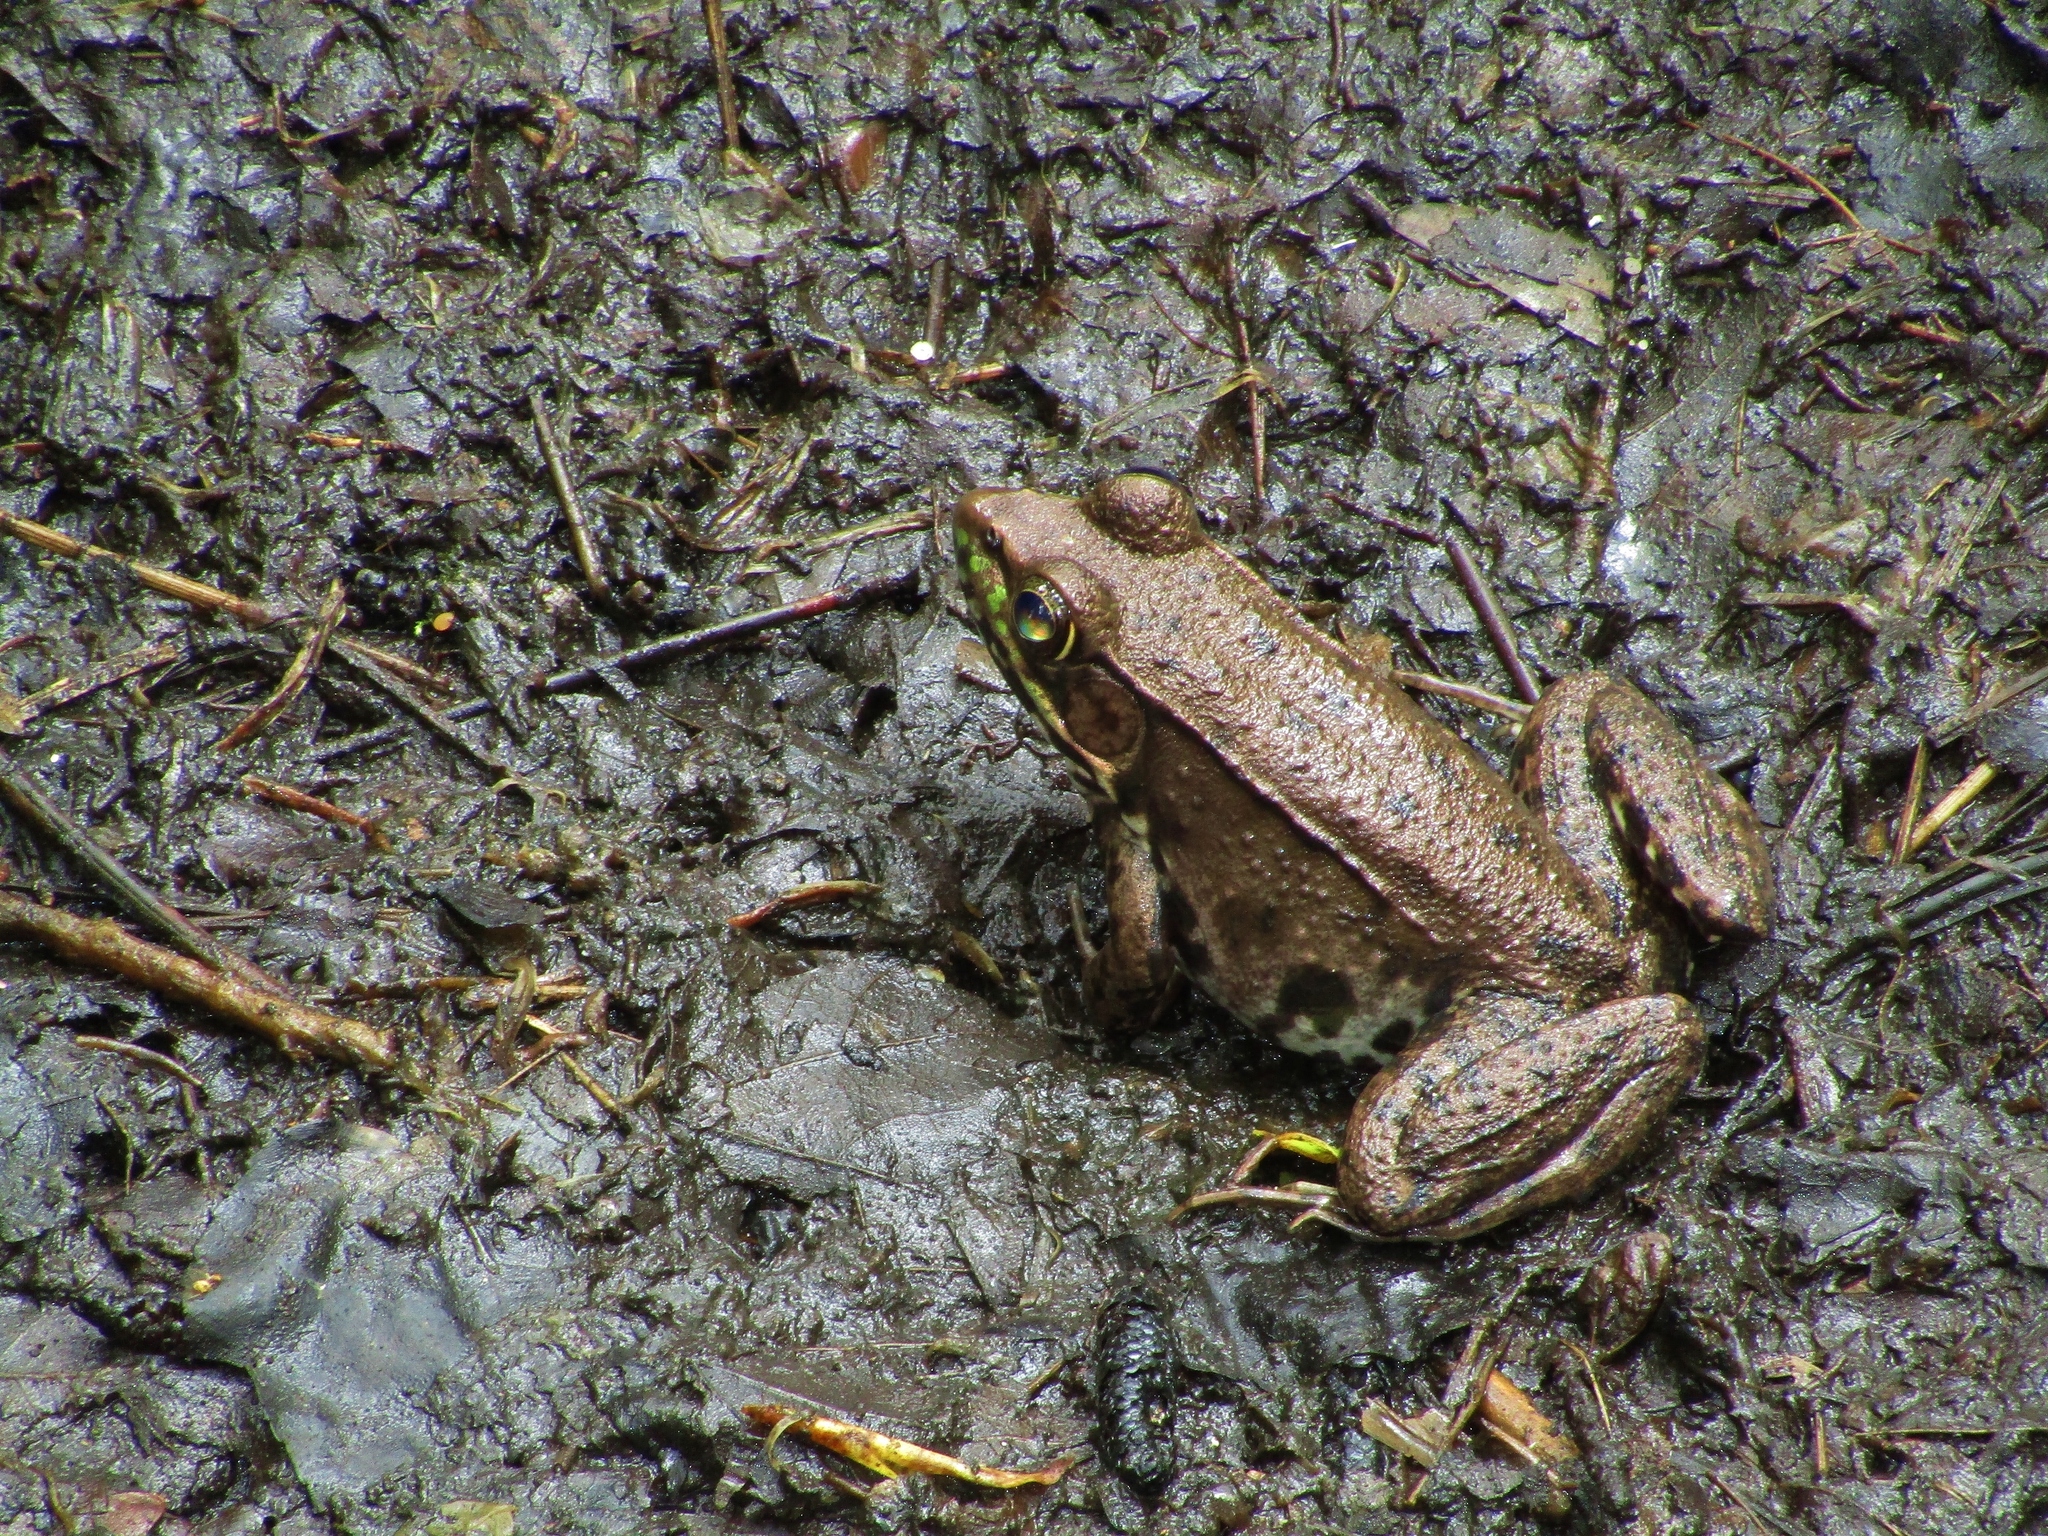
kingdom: Animalia
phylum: Chordata
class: Amphibia
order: Anura
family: Ranidae
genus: Lithobates
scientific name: Lithobates clamitans
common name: Green frog
